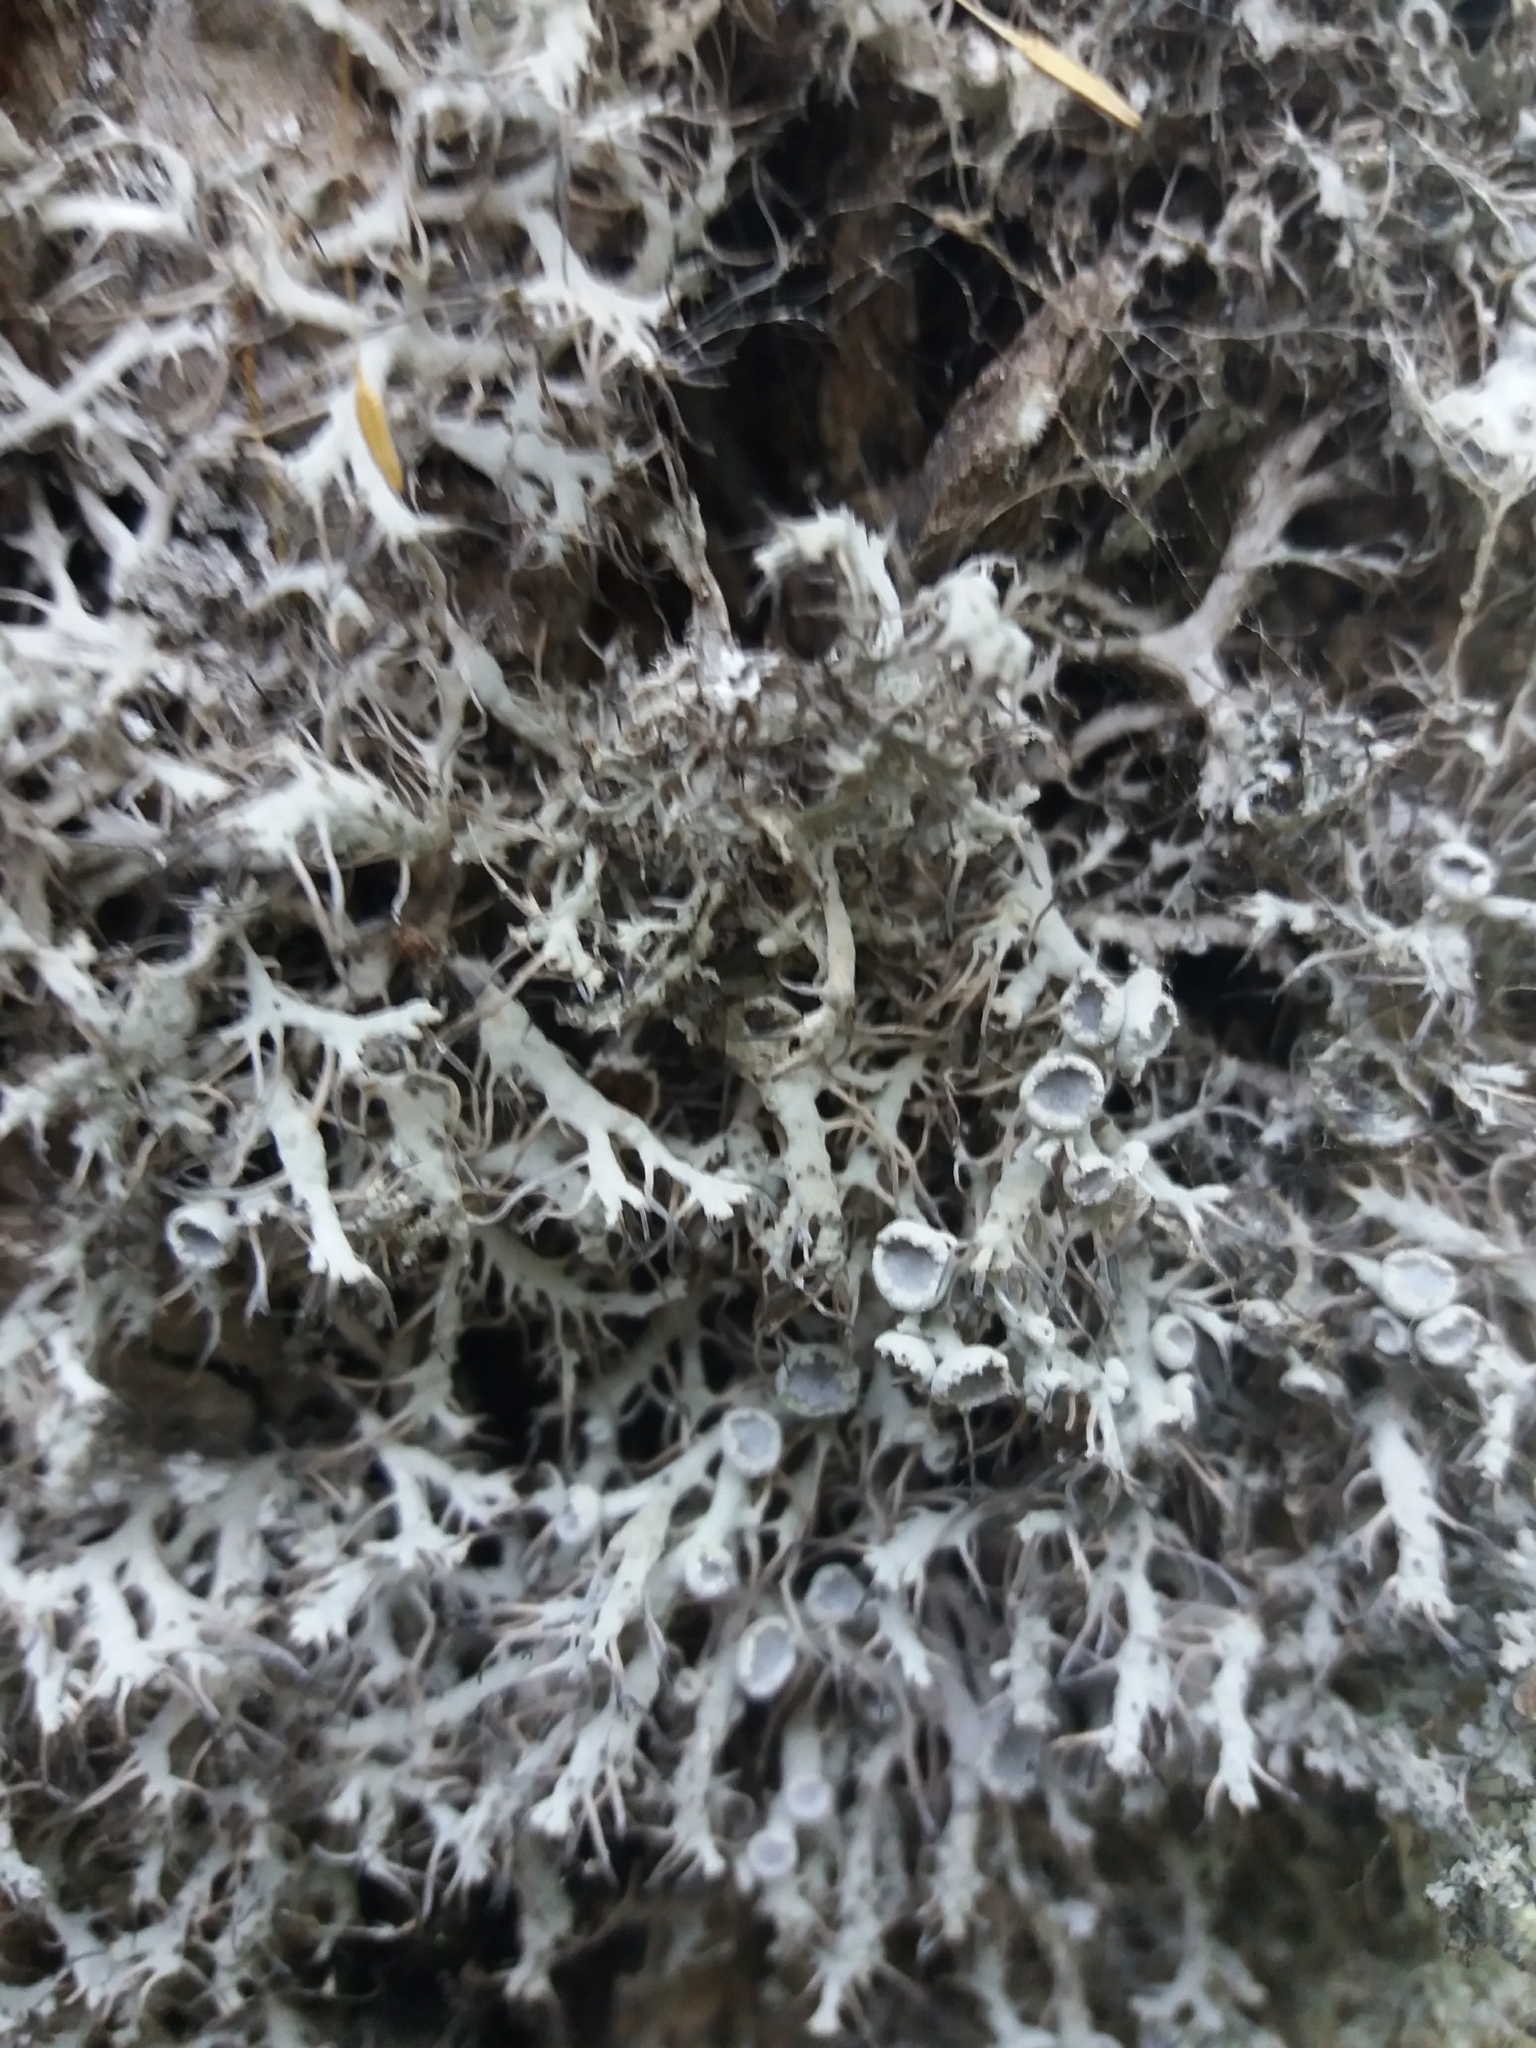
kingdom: Fungi
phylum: Ascomycota
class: Lecanoromycetes
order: Caliciales
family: Physciaceae
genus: Anaptychia
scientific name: Anaptychia ciliaris
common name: Great ciliated lichen
